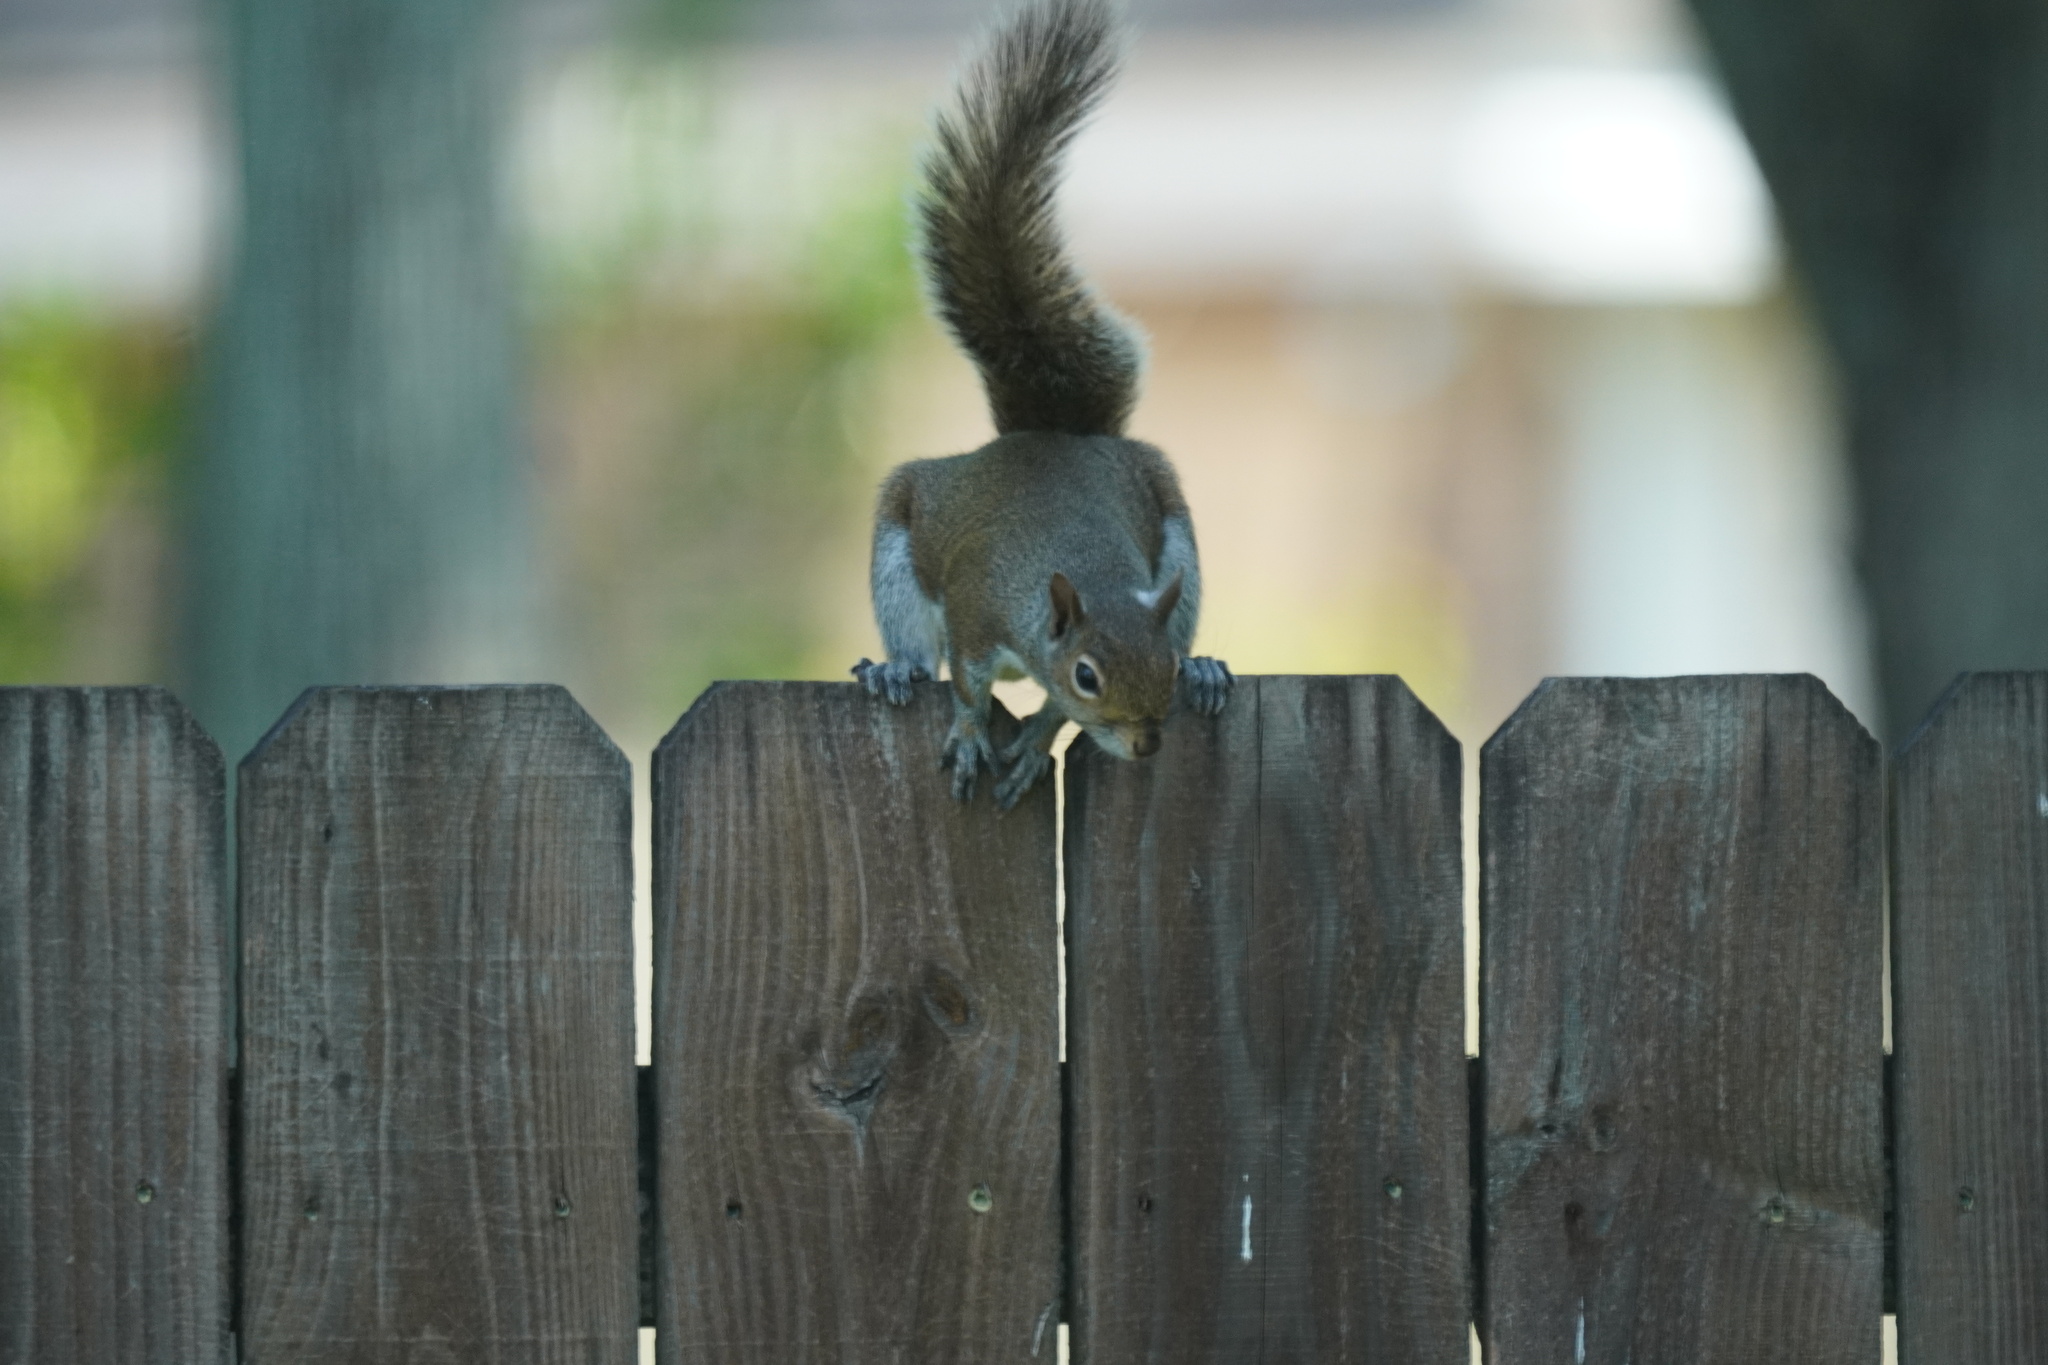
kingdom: Animalia
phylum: Chordata
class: Mammalia
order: Rodentia
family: Sciuridae
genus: Sciurus
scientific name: Sciurus carolinensis
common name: Eastern gray squirrel
